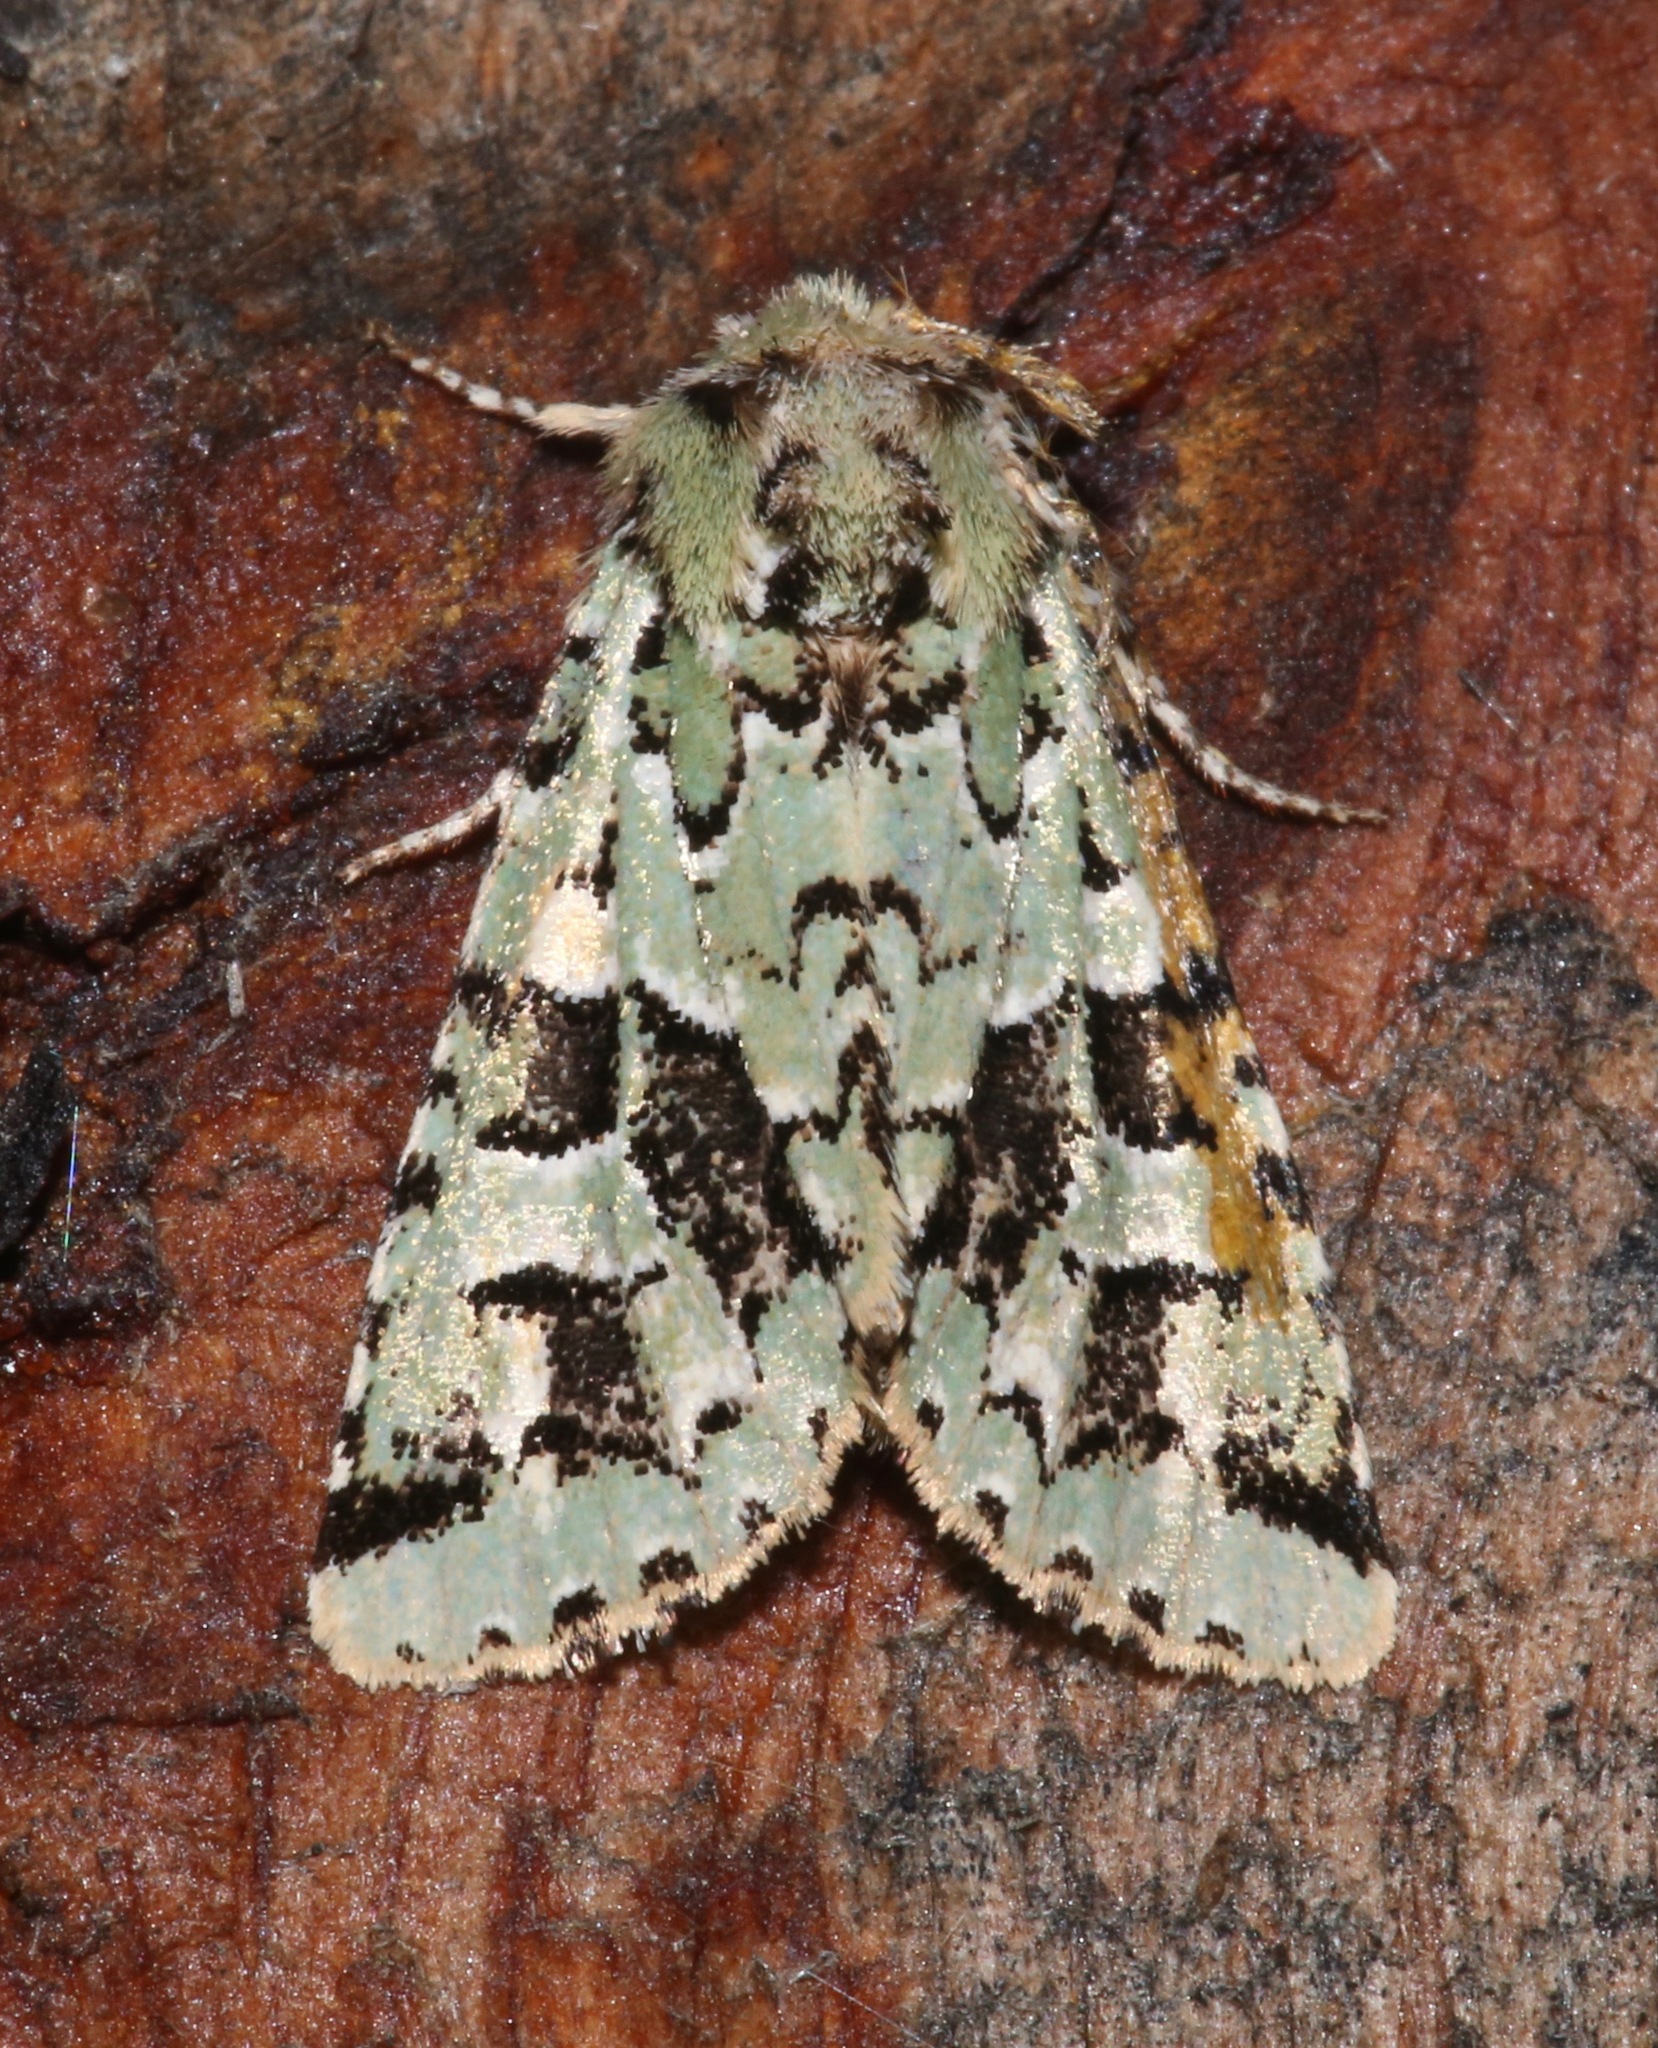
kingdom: Animalia
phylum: Arthropoda
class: Insecta
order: Lepidoptera
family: Noctuidae
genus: Feralia
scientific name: Feralia comstocki
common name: Comstock's sallow
